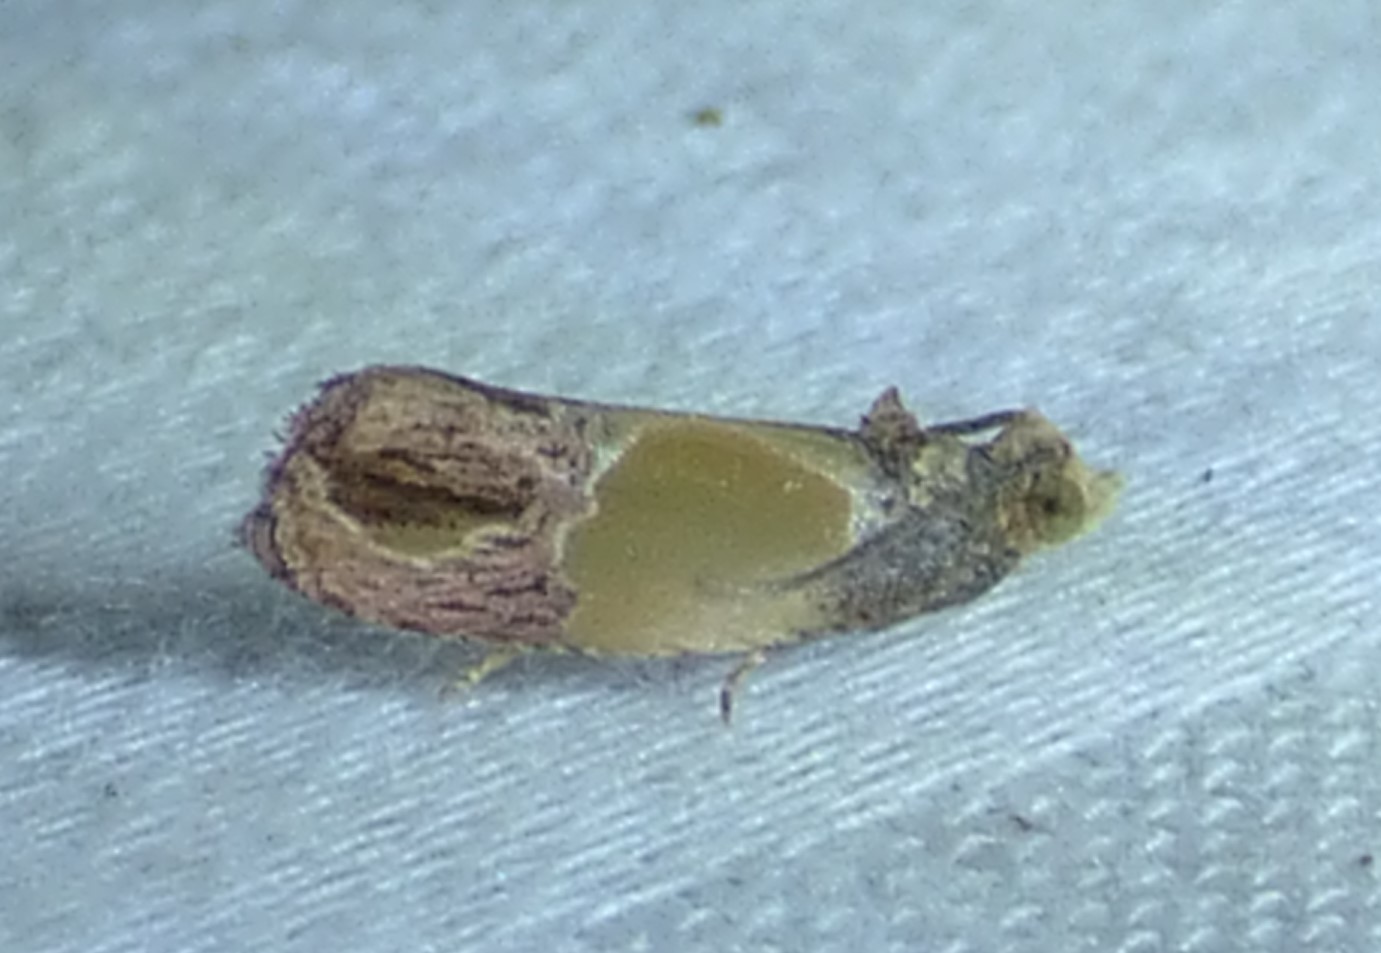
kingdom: Animalia
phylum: Arthropoda
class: Insecta
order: Lepidoptera
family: Tortricidae
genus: Eumarozia
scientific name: Eumarozia malachitana
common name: Sculptured moth
